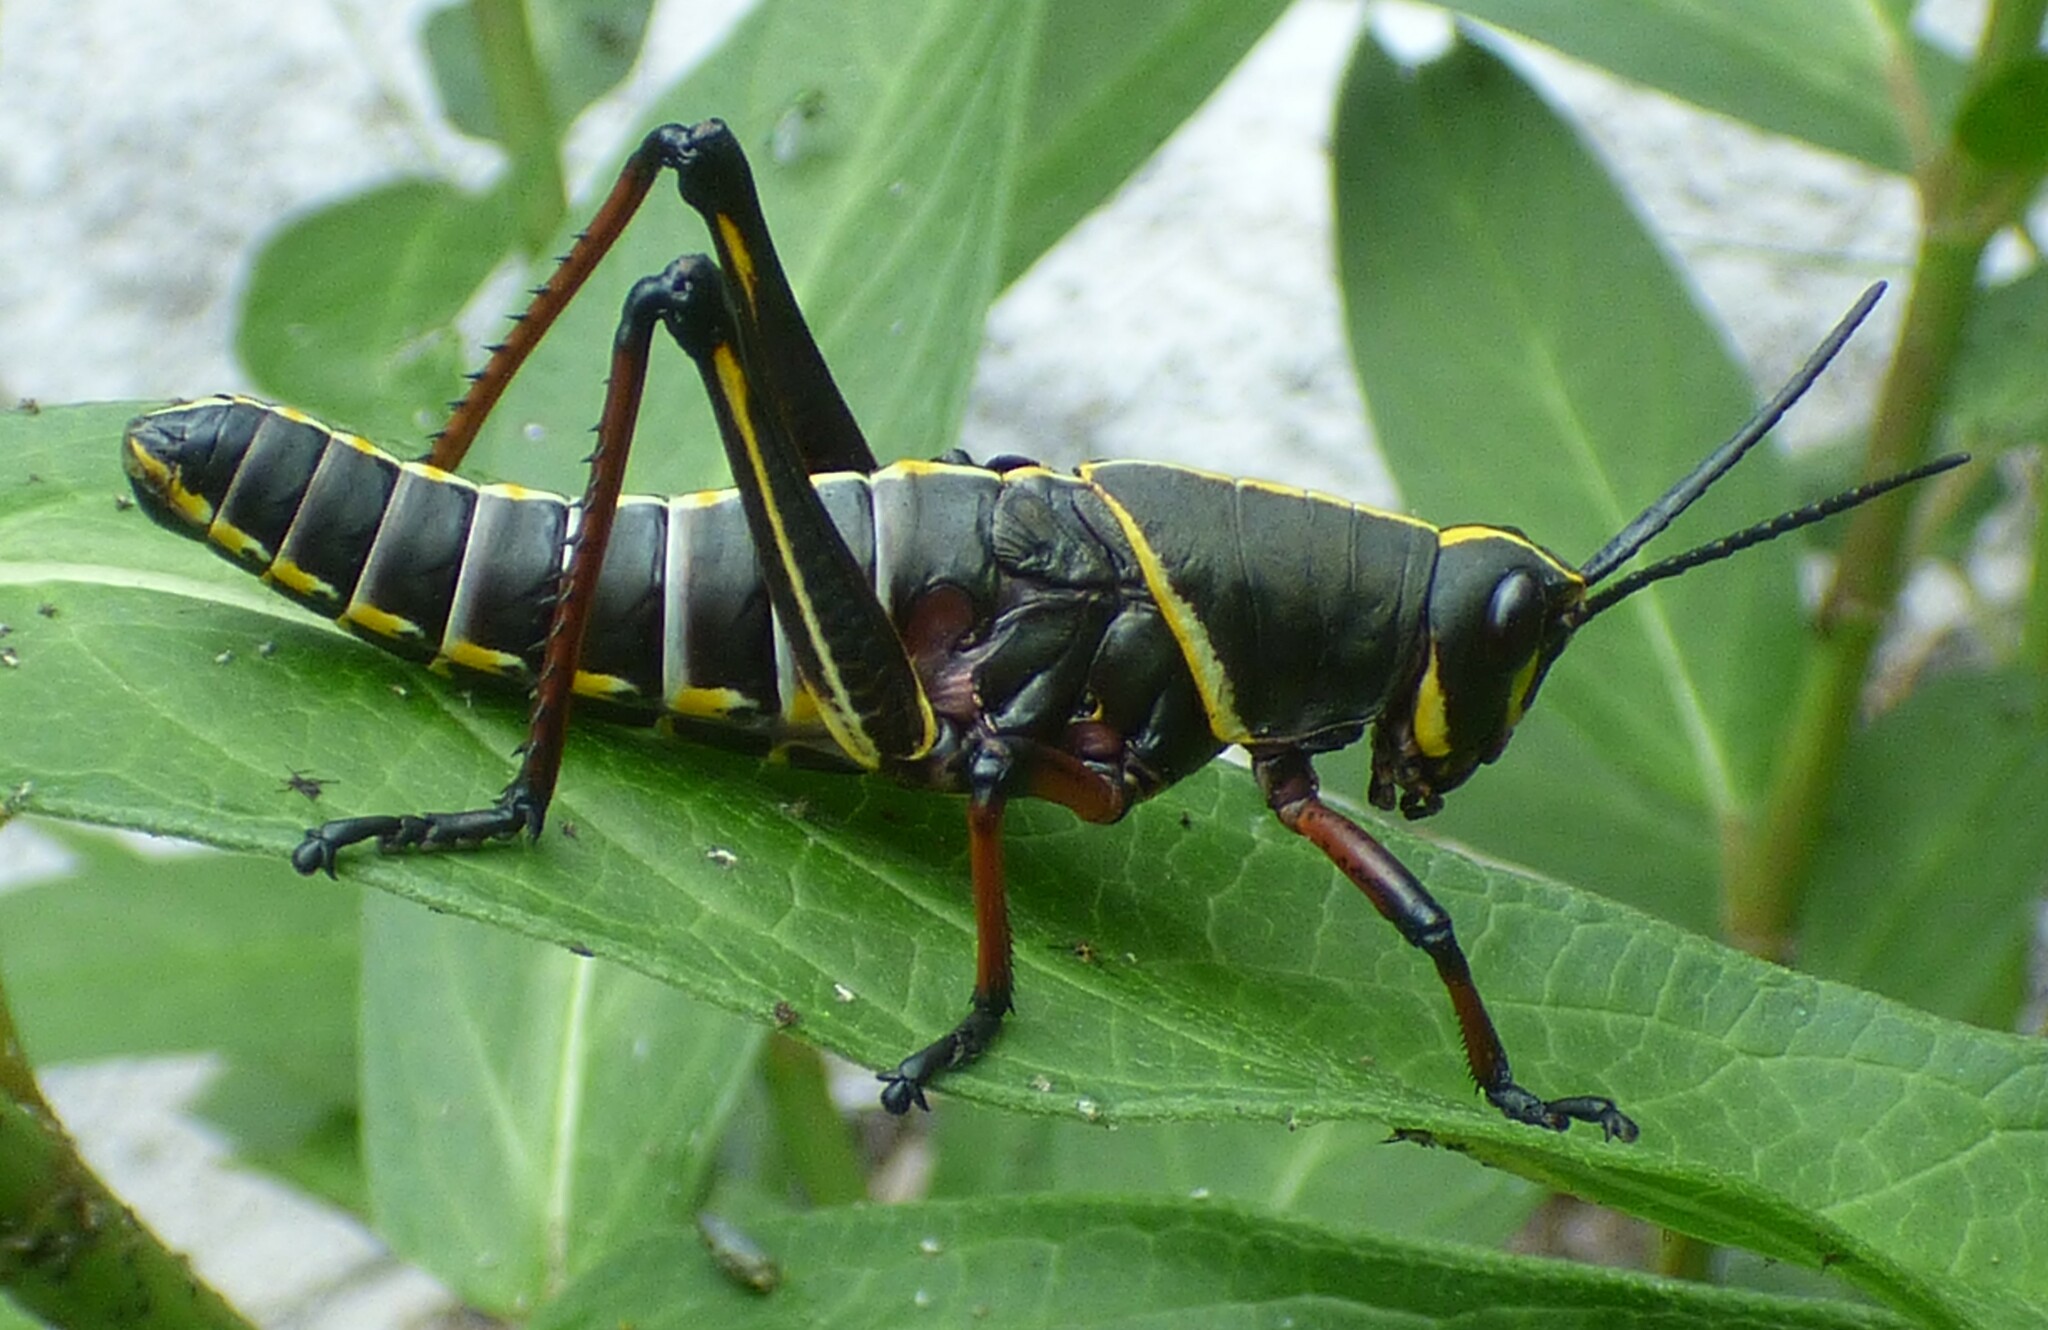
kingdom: Animalia
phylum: Arthropoda
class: Insecta
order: Orthoptera
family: Romaleidae
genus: Romalea
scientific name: Romalea microptera
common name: Eastern lubber grasshopper
